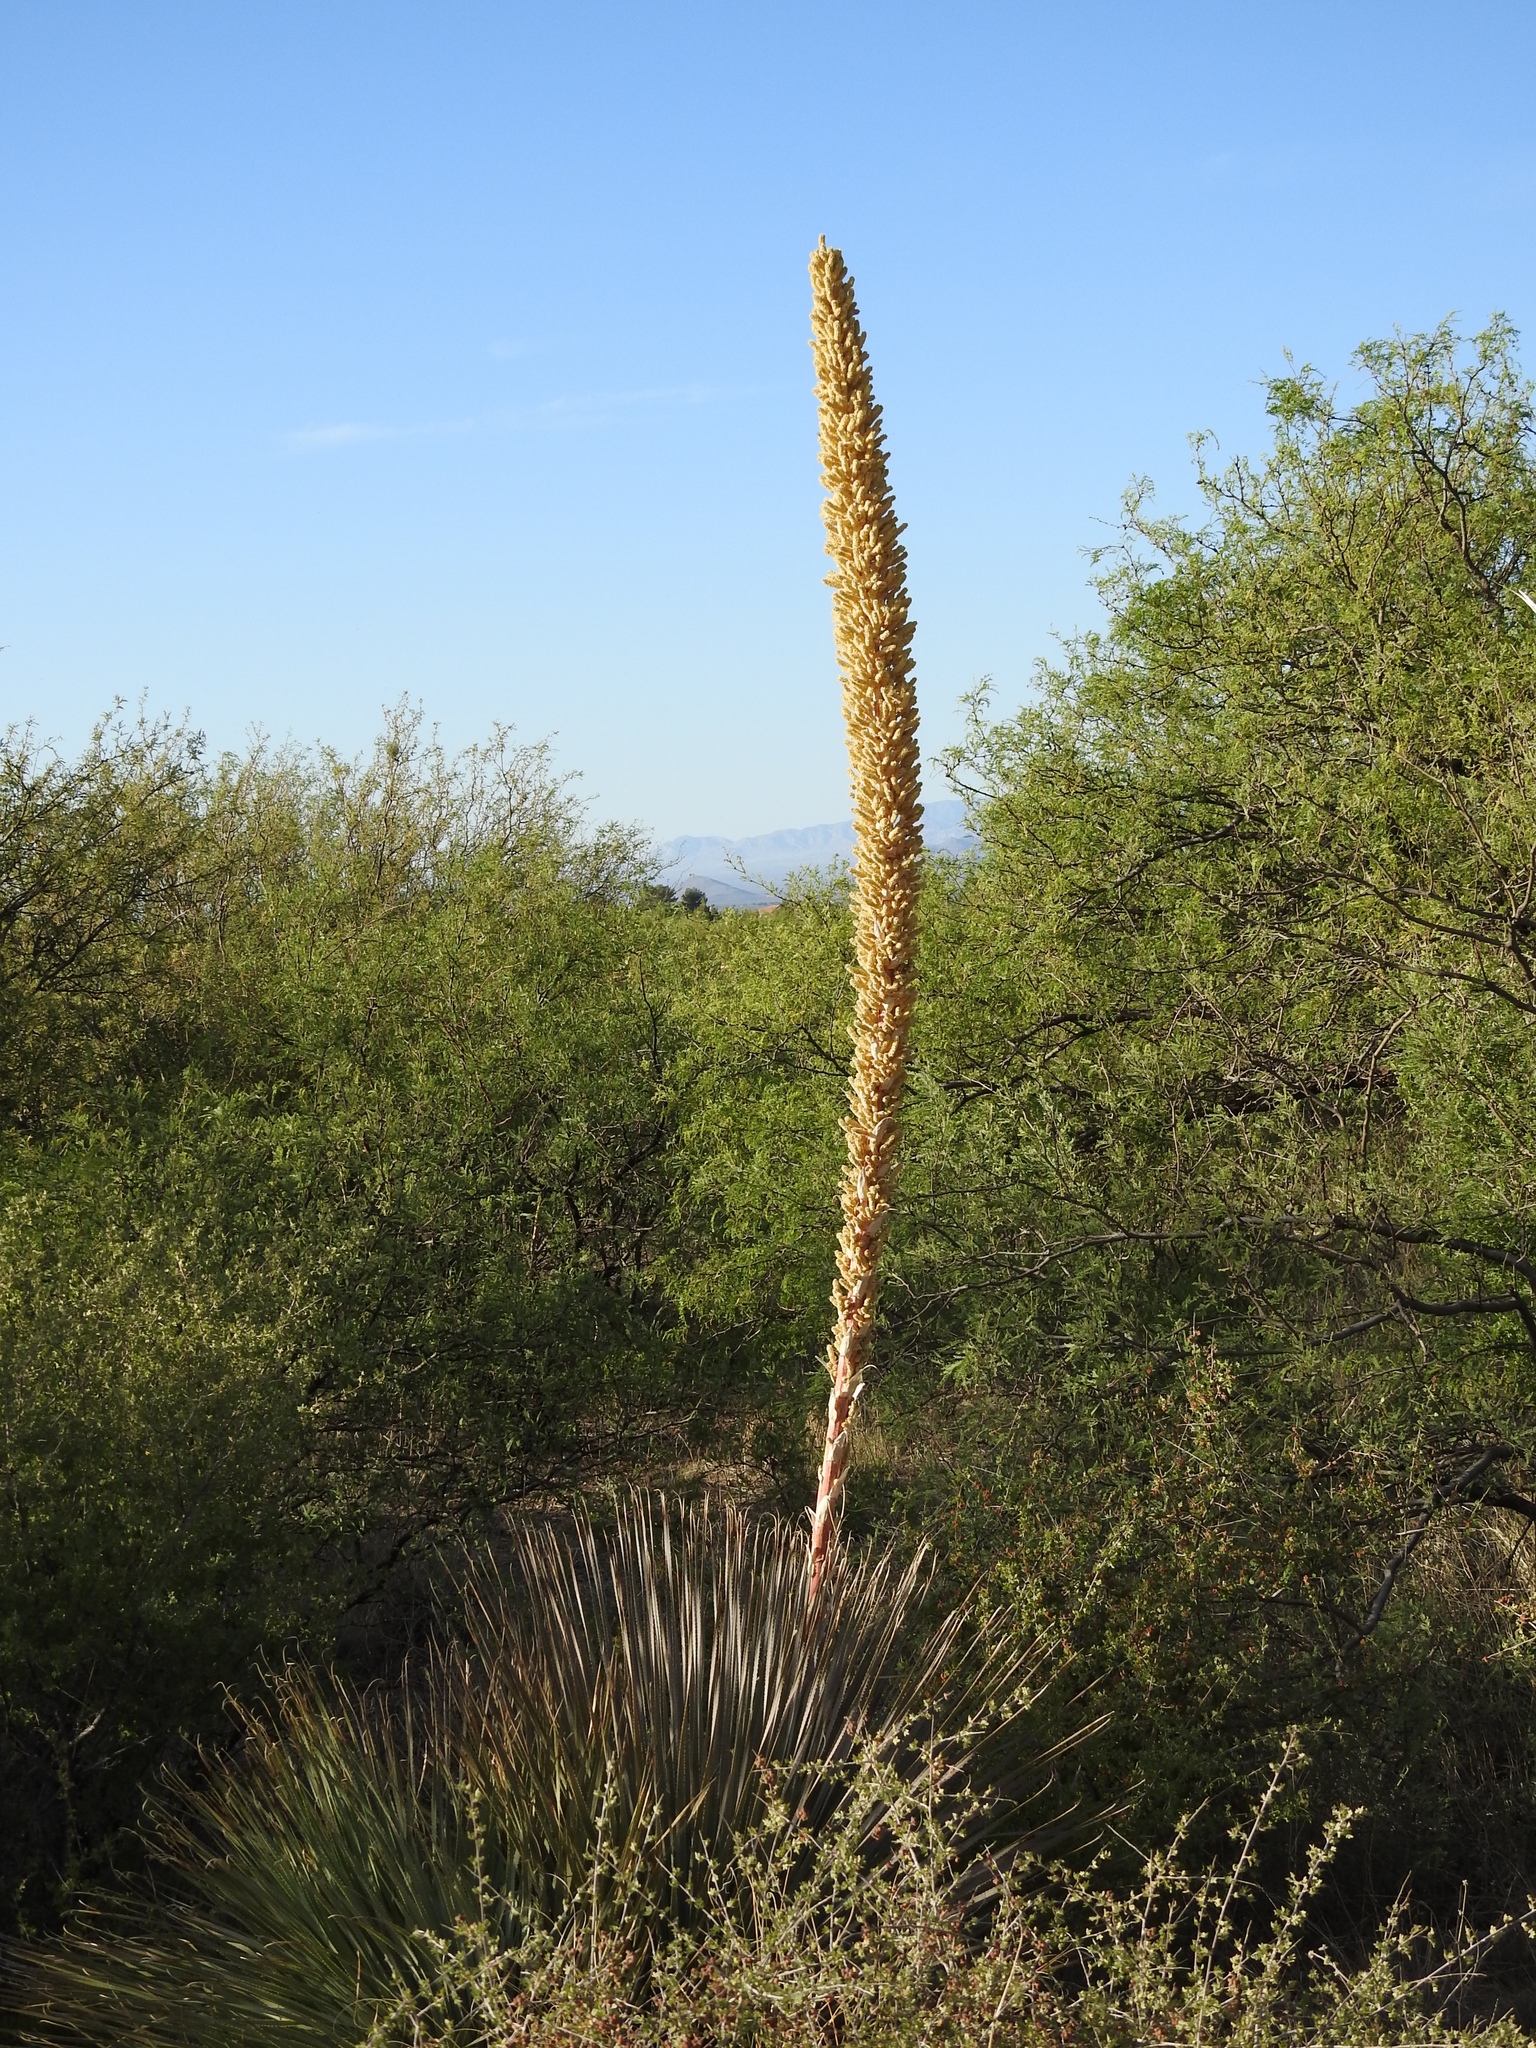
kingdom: Plantae
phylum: Tracheophyta
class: Liliopsida
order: Asparagales
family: Asparagaceae
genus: Dasylirion
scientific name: Dasylirion wheeleri
